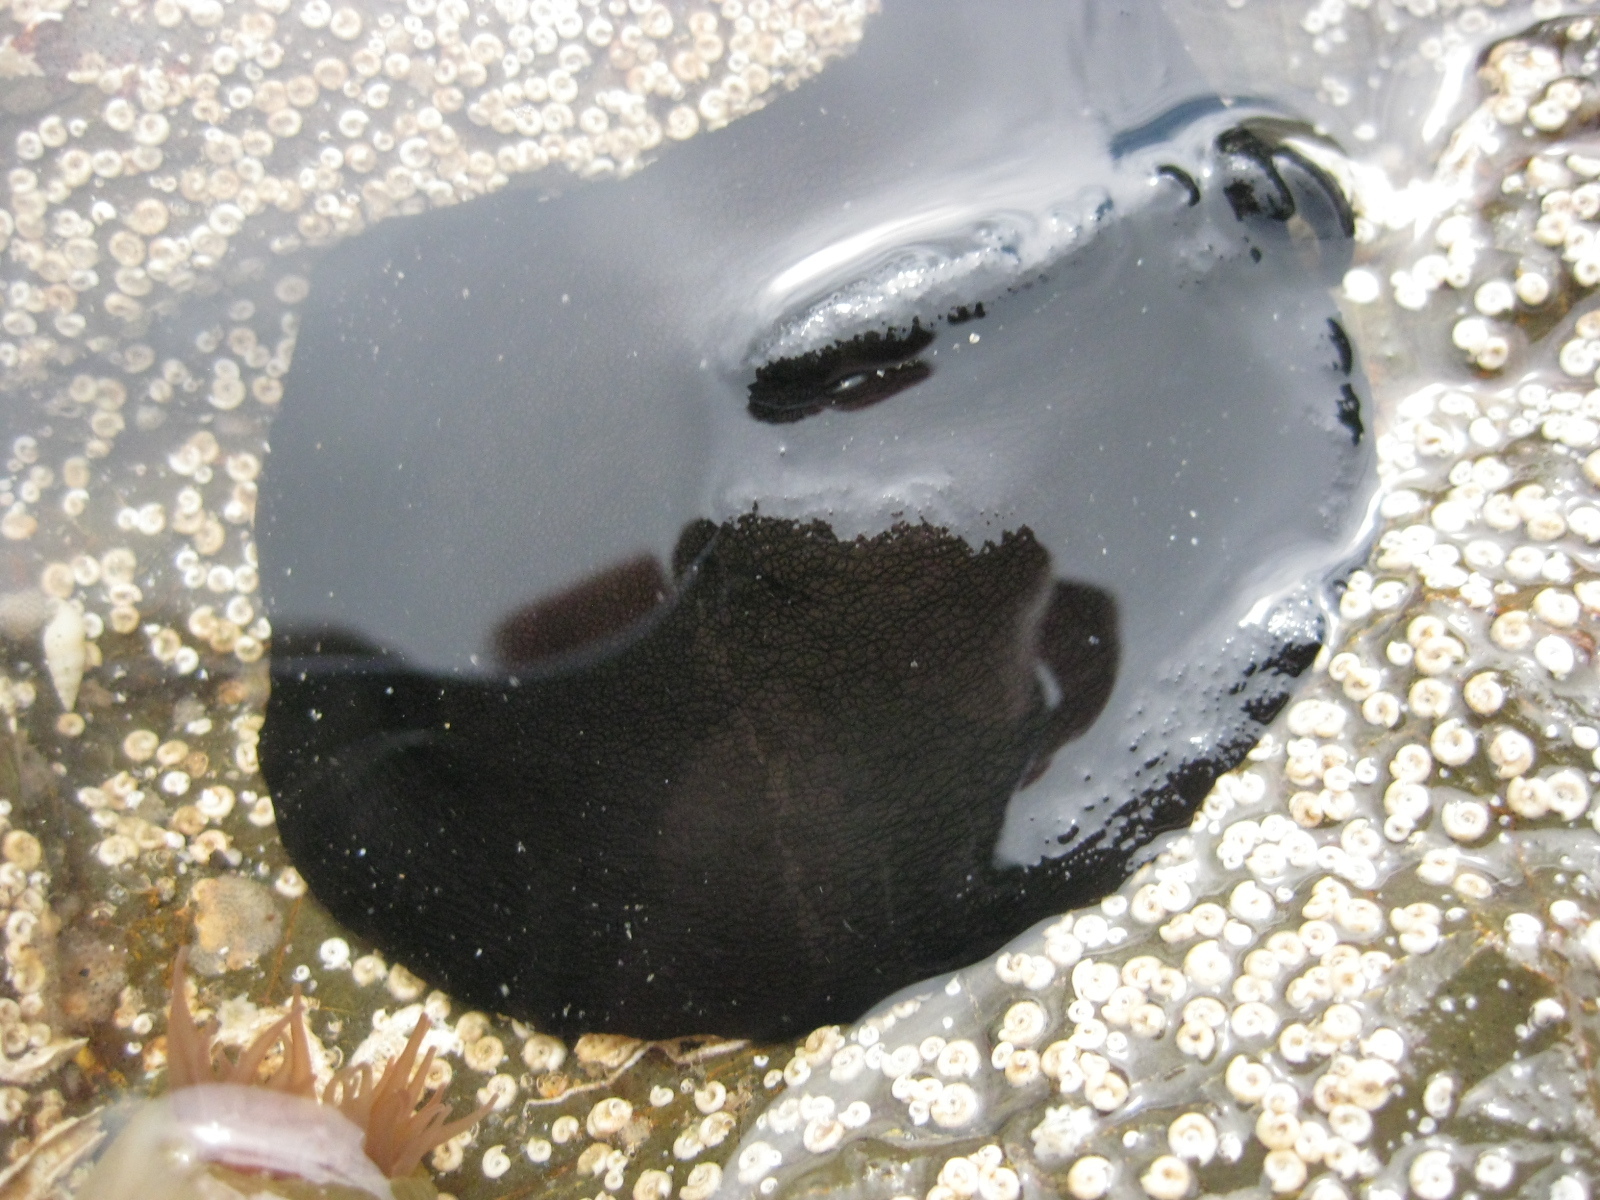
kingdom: Animalia
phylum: Mollusca
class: Gastropoda
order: Lepetellida
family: Fissurellidae
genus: Scutus
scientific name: Scutus breviculus
